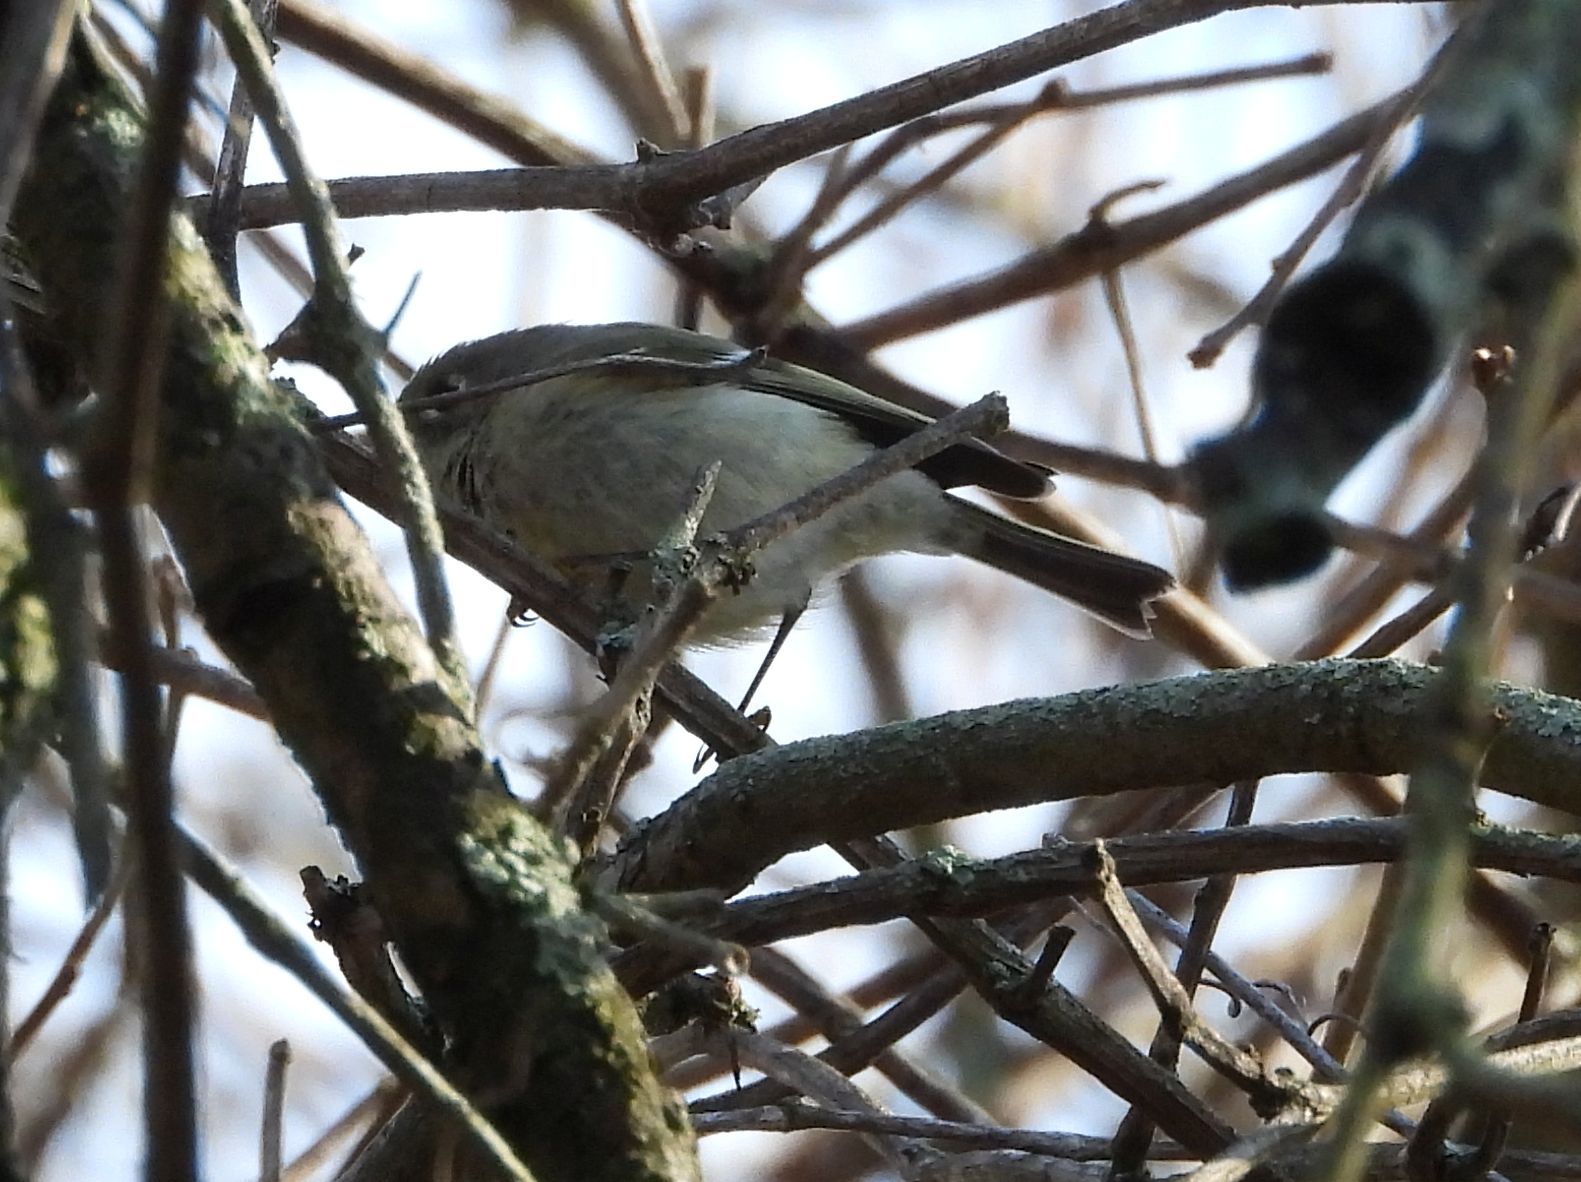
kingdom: Animalia
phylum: Chordata
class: Aves
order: Passeriformes
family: Regulidae
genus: Regulus
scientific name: Regulus calendula
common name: Ruby-crowned kinglet
